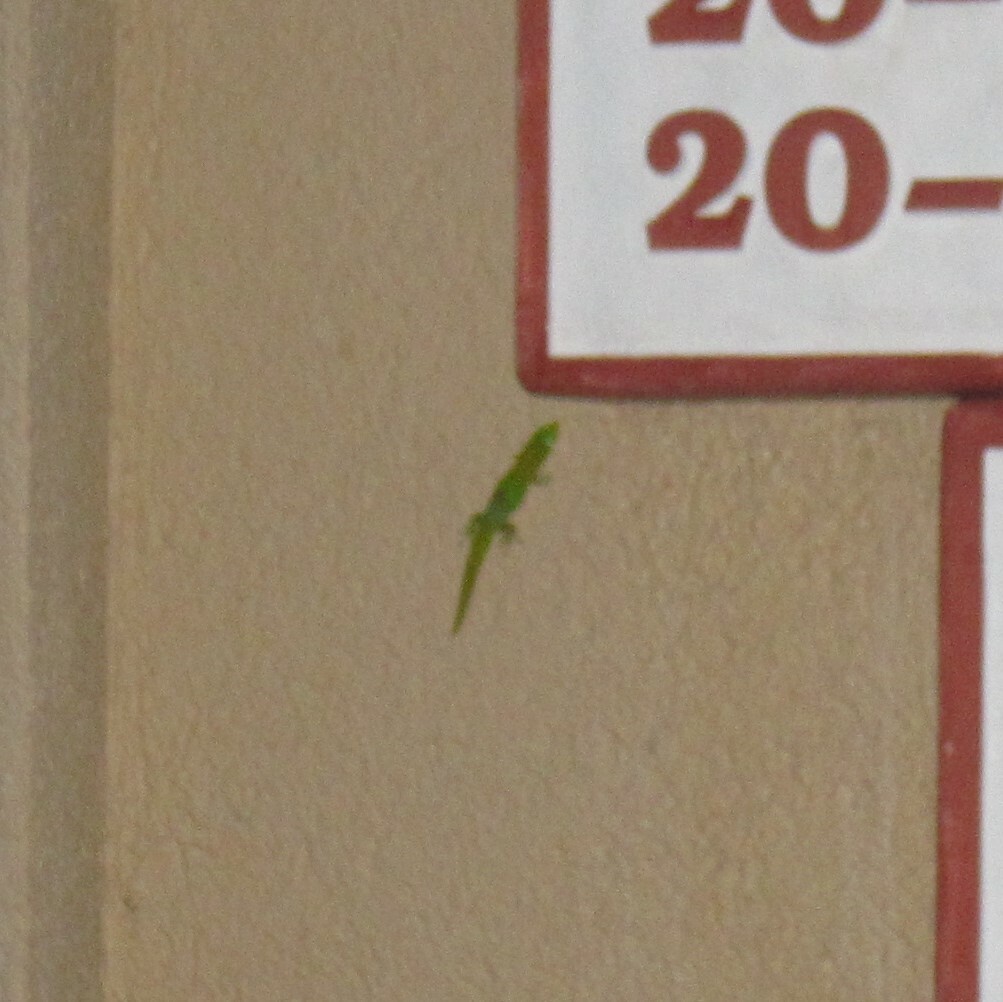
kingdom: Animalia
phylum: Chordata
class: Squamata
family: Gekkonidae
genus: Phelsuma
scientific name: Phelsuma laticauda
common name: Gold dust day gecko
